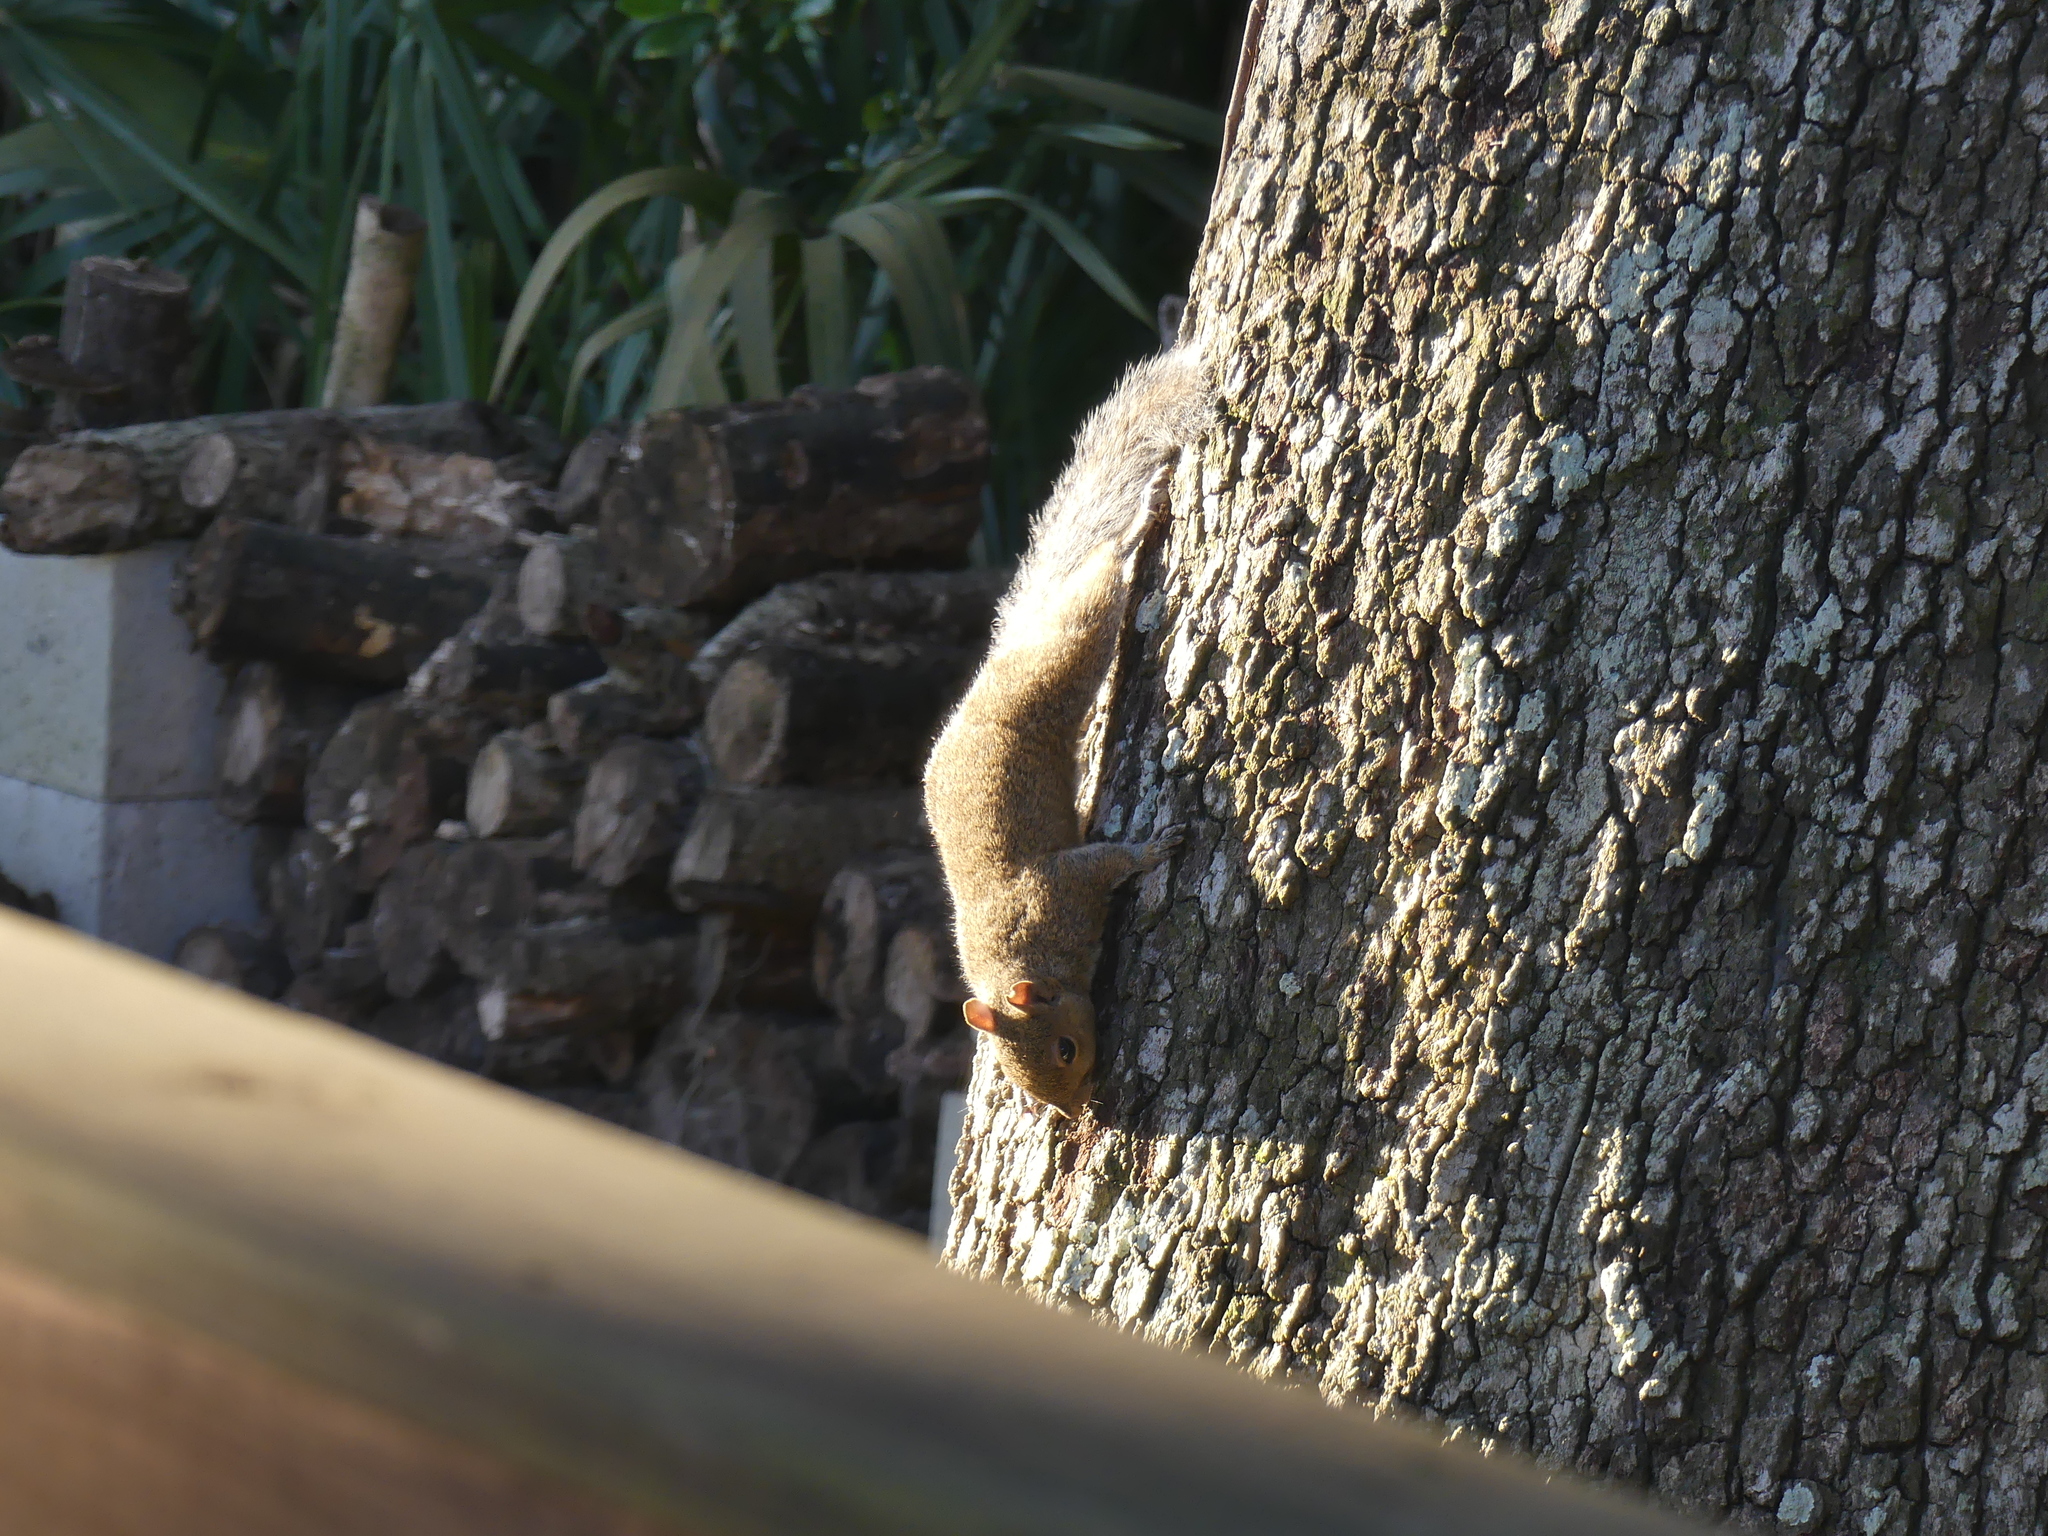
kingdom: Animalia
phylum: Chordata
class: Mammalia
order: Rodentia
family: Sciuridae
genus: Sciurus
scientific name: Sciurus carolinensis
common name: Eastern gray squirrel
